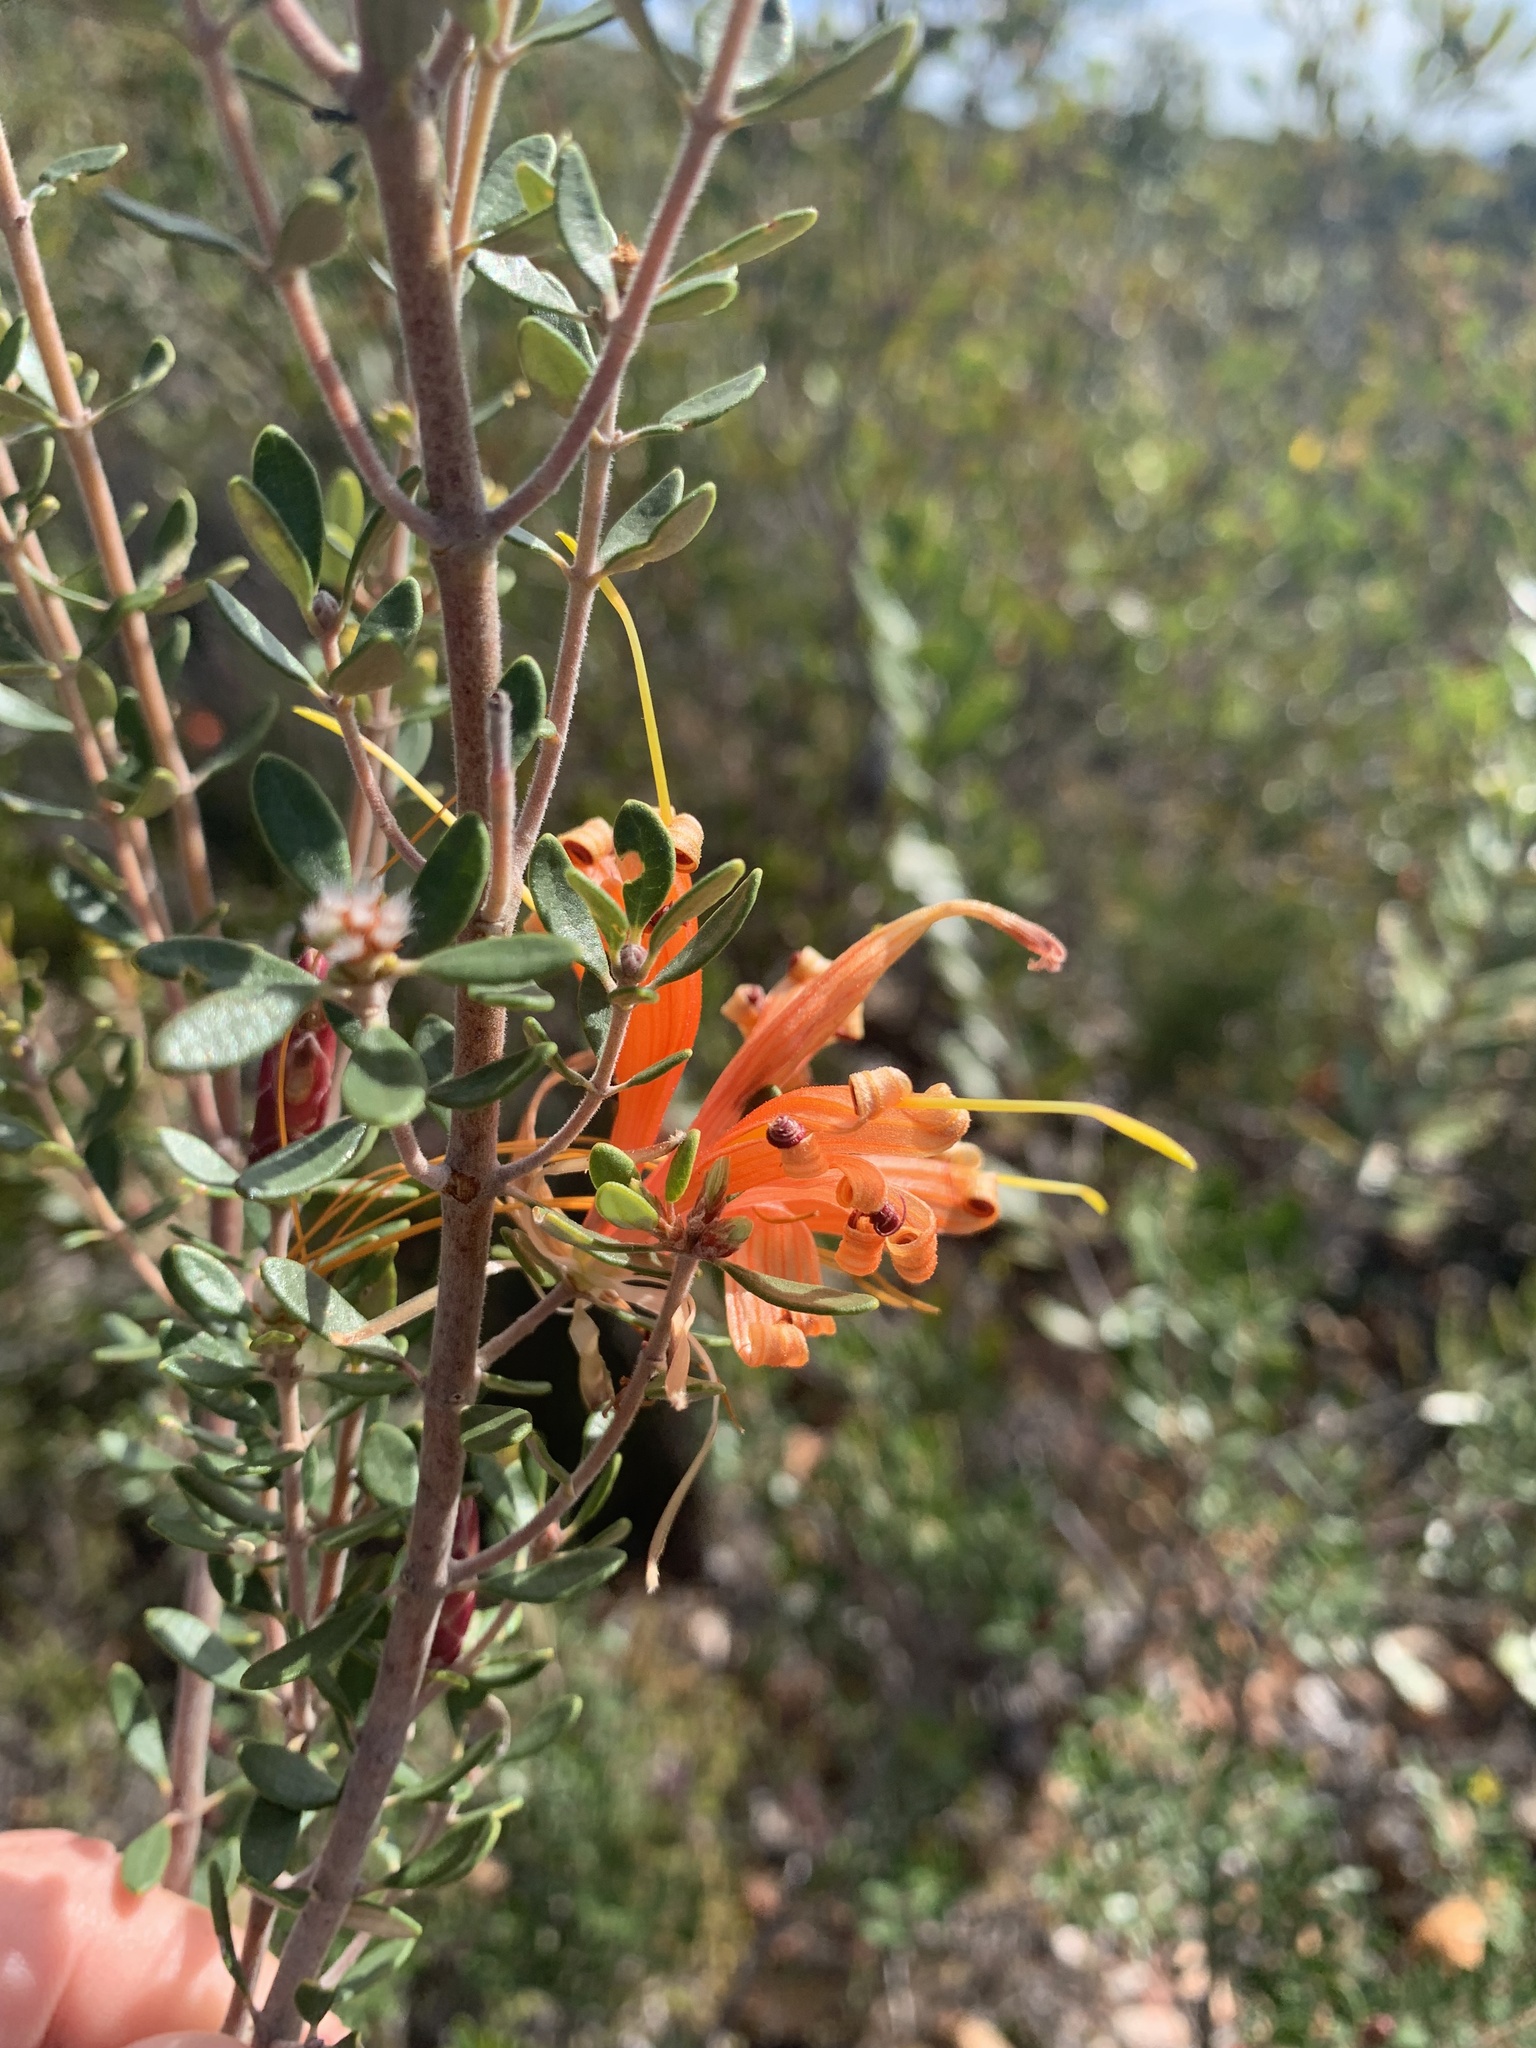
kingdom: Plantae
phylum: Tracheophyta
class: Magnoliopsida
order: Proteales
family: Proteaceae
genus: Lambertia
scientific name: Lambertia inermis
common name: Chittick
